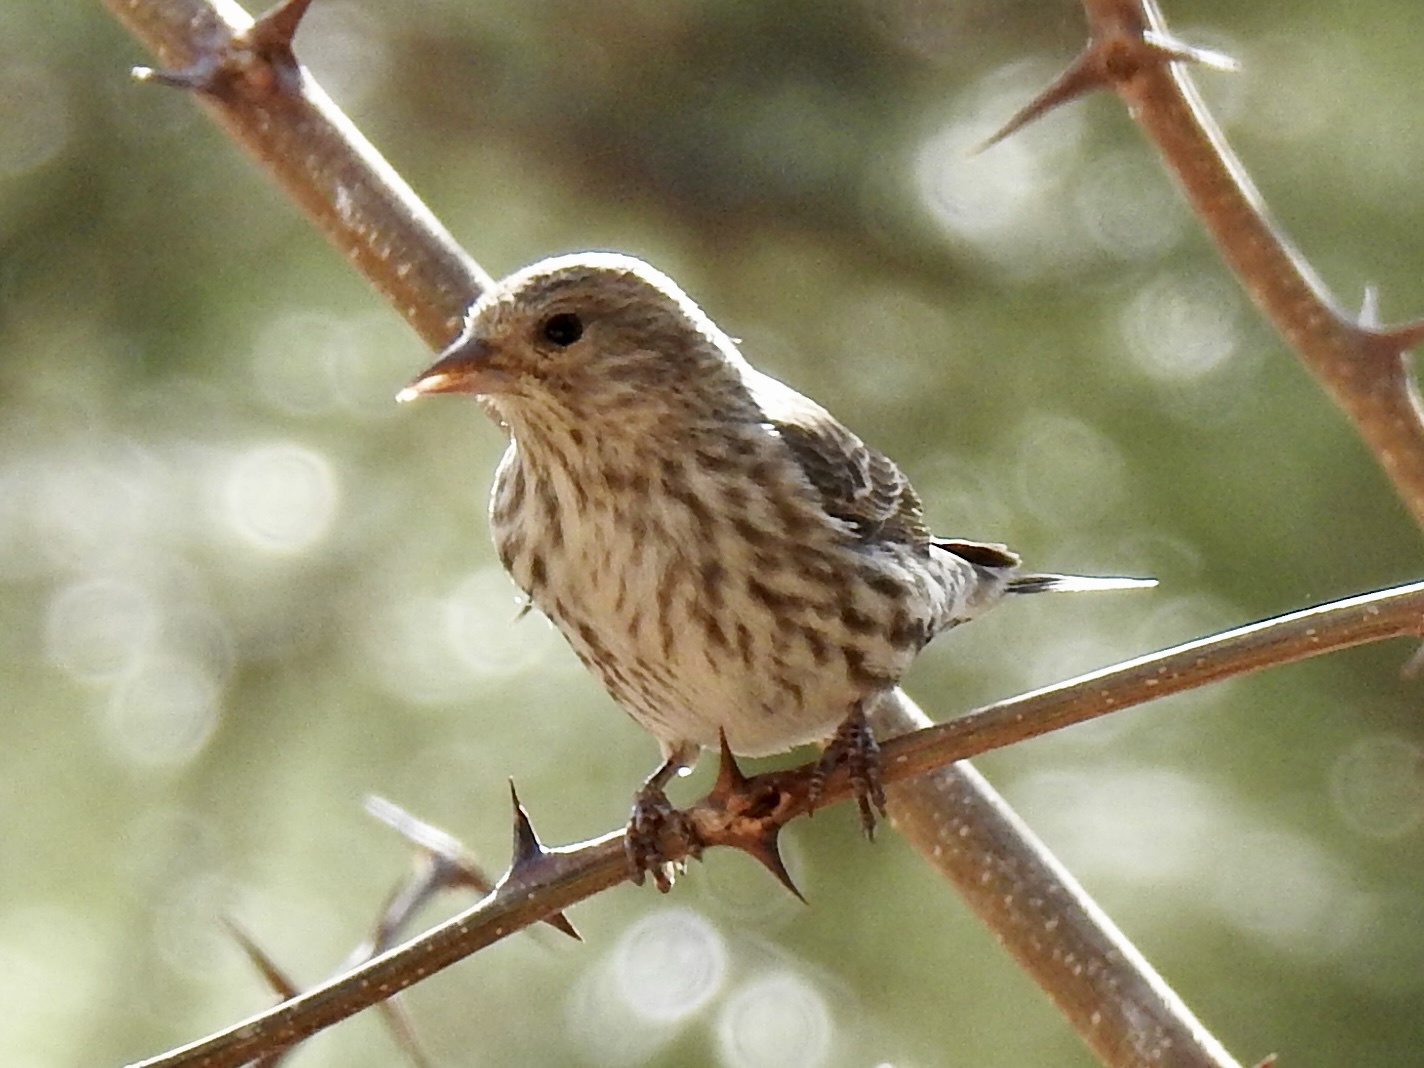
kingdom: Animalia
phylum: Chordata
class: Aves
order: Passeriformes
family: Fringillidae
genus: Spinus
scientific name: Spinus pinus
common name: Pine siskin
